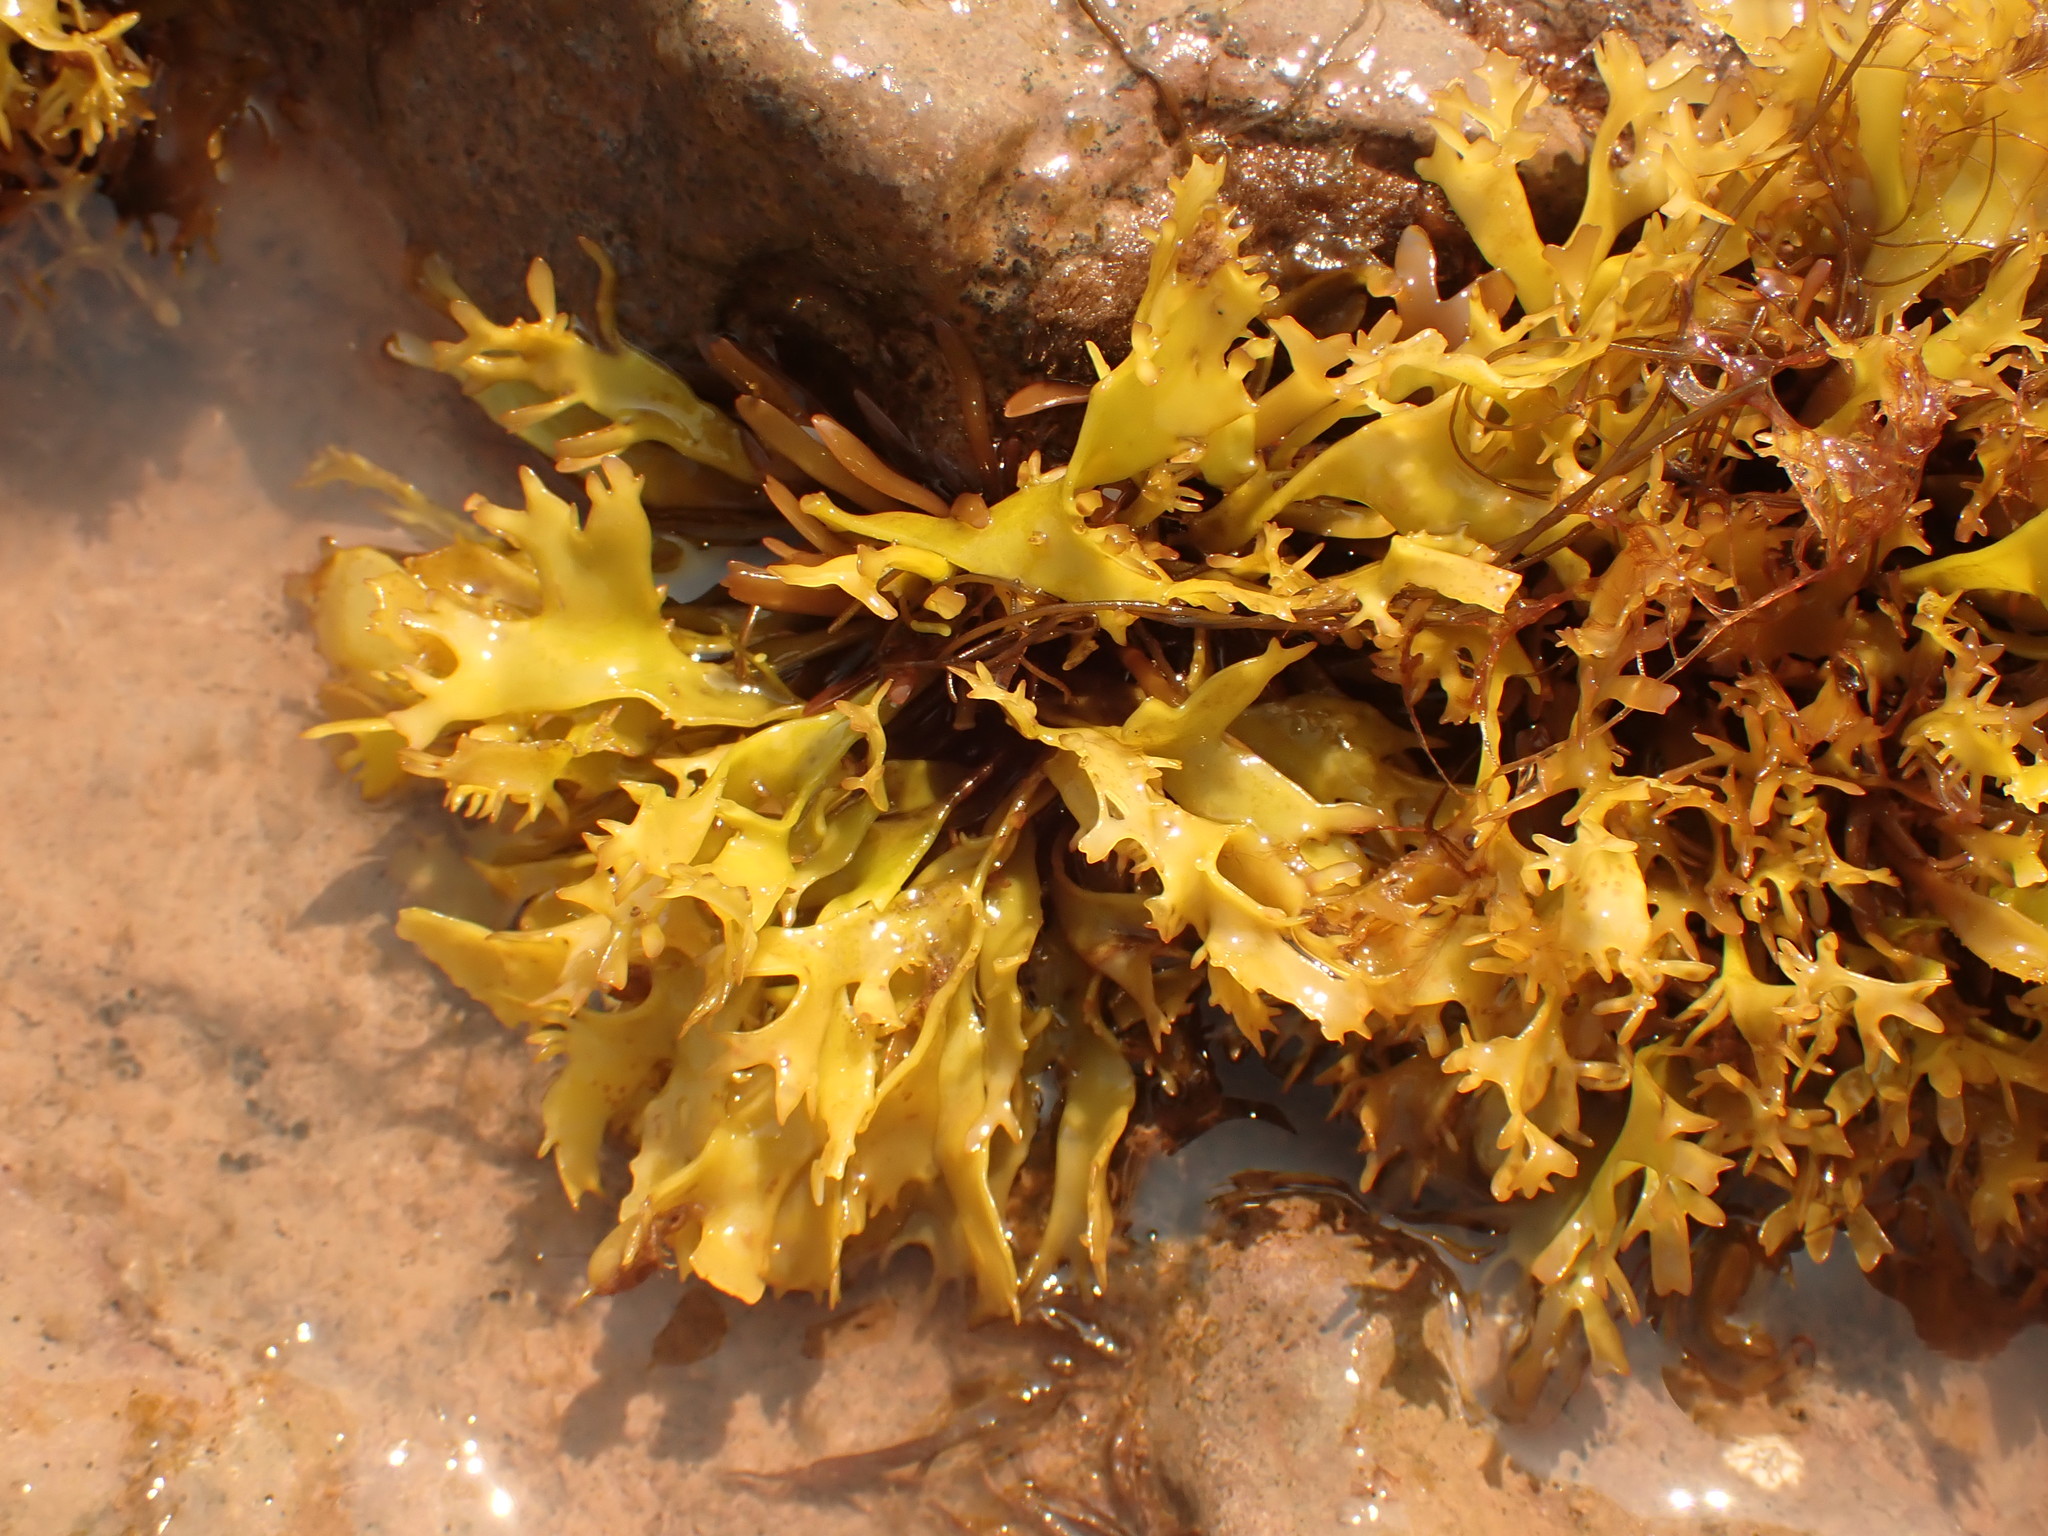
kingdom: Plantae
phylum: Rhodophyta
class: Florideophyceae
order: Gigartinales
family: Gigartinaceae
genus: Chondrus
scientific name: Chondrus crispus
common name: Carrageen
